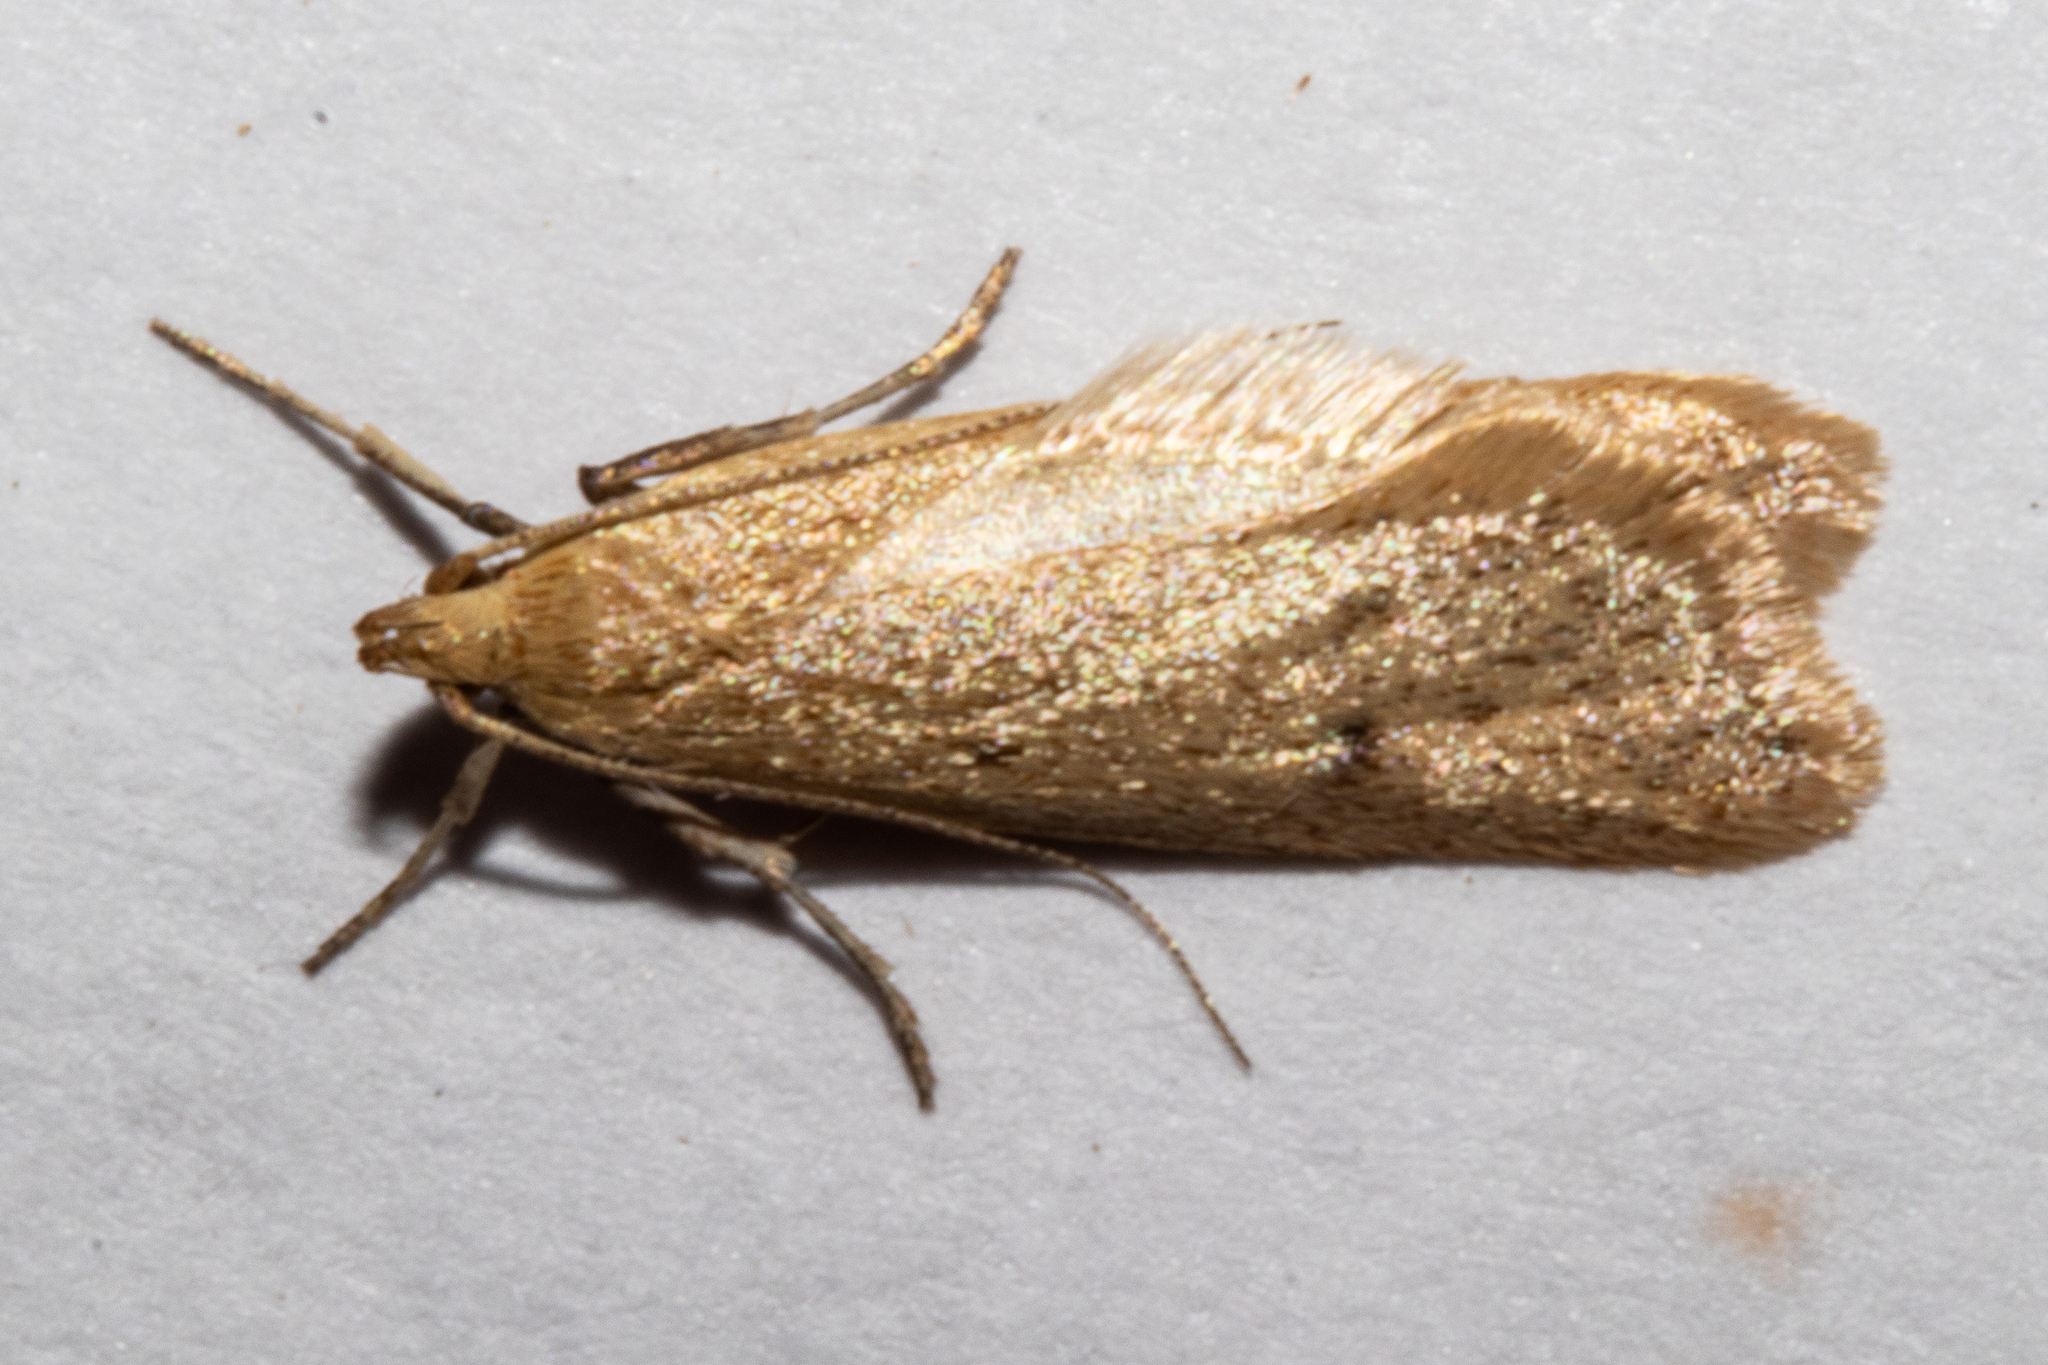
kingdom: Animalia
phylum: Arthropoda
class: Insecta
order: Lepidoptera
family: Oecophoridae
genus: Gymnobathra
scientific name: Gymnobathra sarcoxantha
